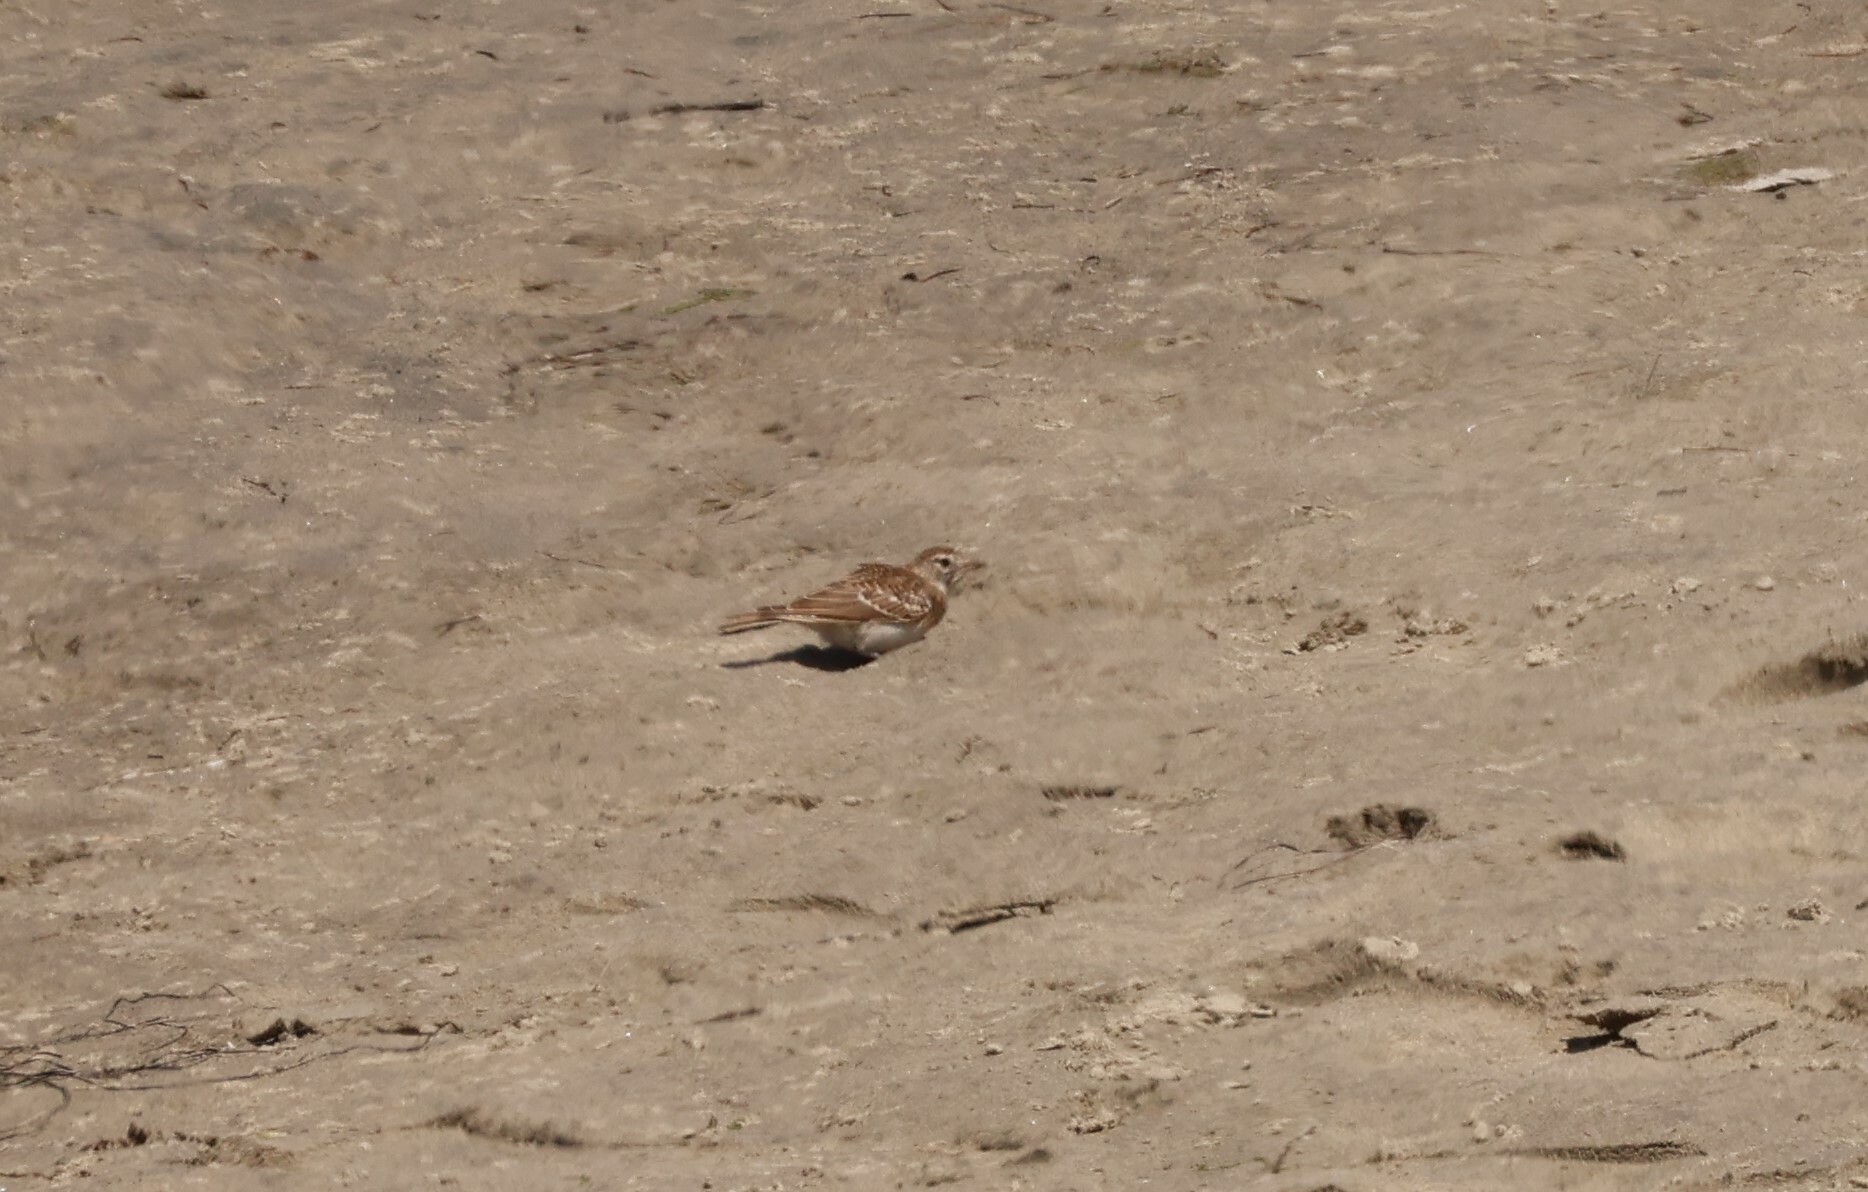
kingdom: Animalia
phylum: Chordata
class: Aves
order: Passeriformes
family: Alaudidae
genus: Eremophila
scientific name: Eremophila alpestris
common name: Horned lark
